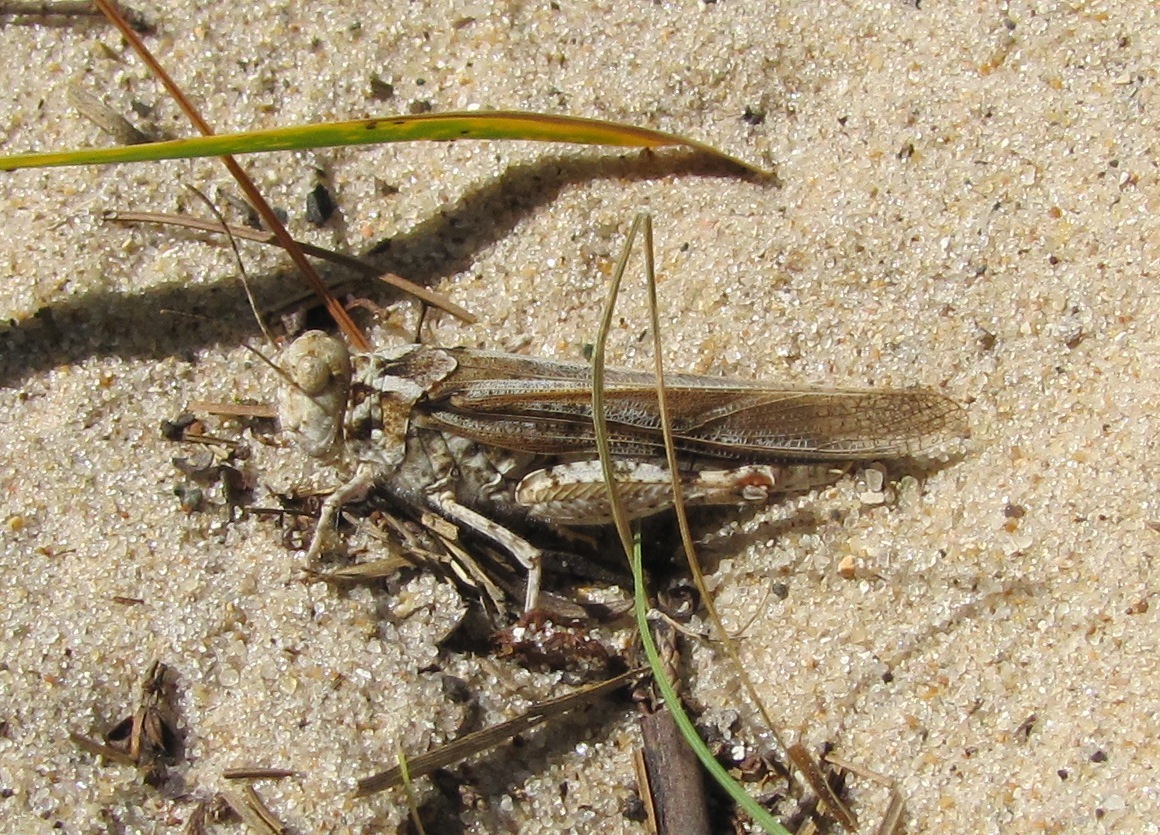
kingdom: Animalia
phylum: Arthropoda
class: Insecta
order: Orthoptera
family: Acrididae
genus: Trimerotropis
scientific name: Trimerotropis huroniana
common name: Lake huron locust
